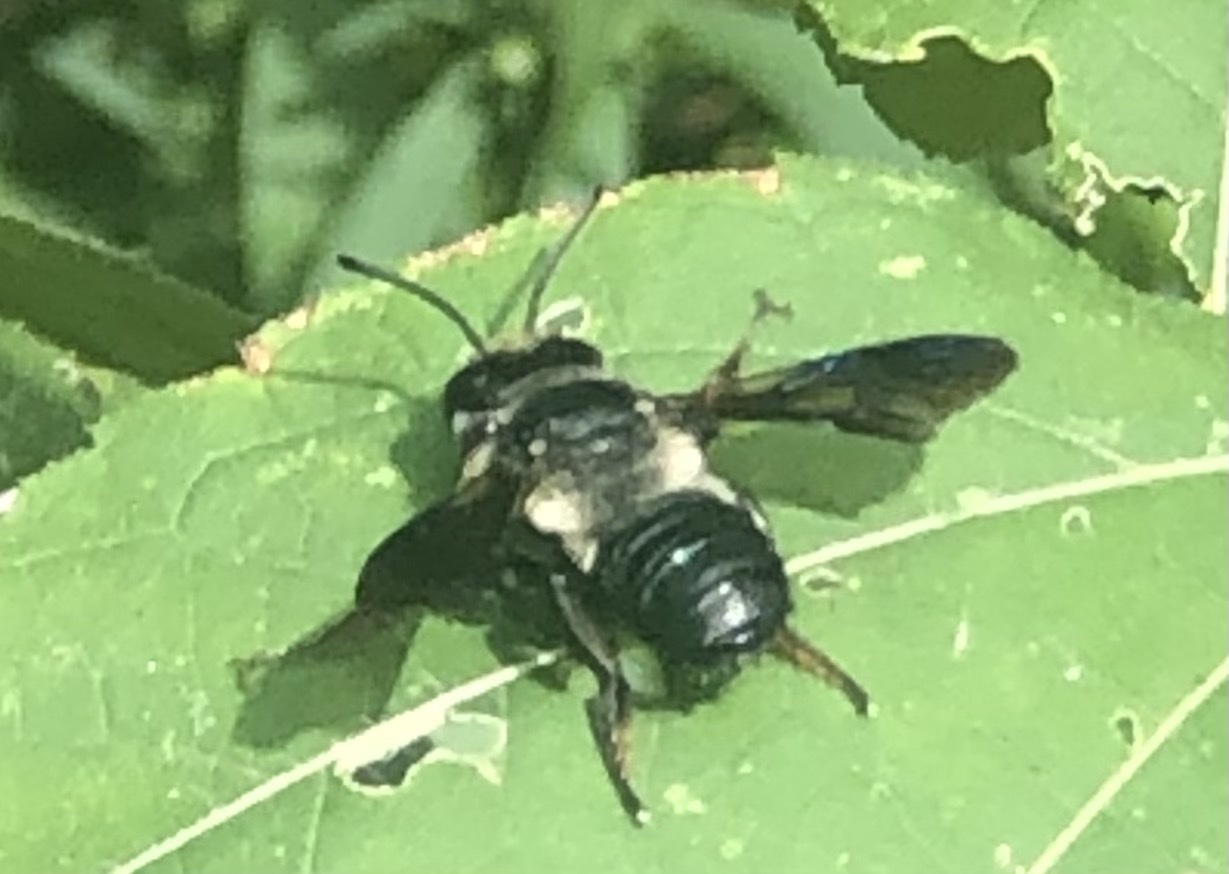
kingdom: Animalia
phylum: Arthropoda
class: Insecta
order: Hymenoptera
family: Megachilidae
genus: Megachile
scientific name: Megachile xylocopoides
